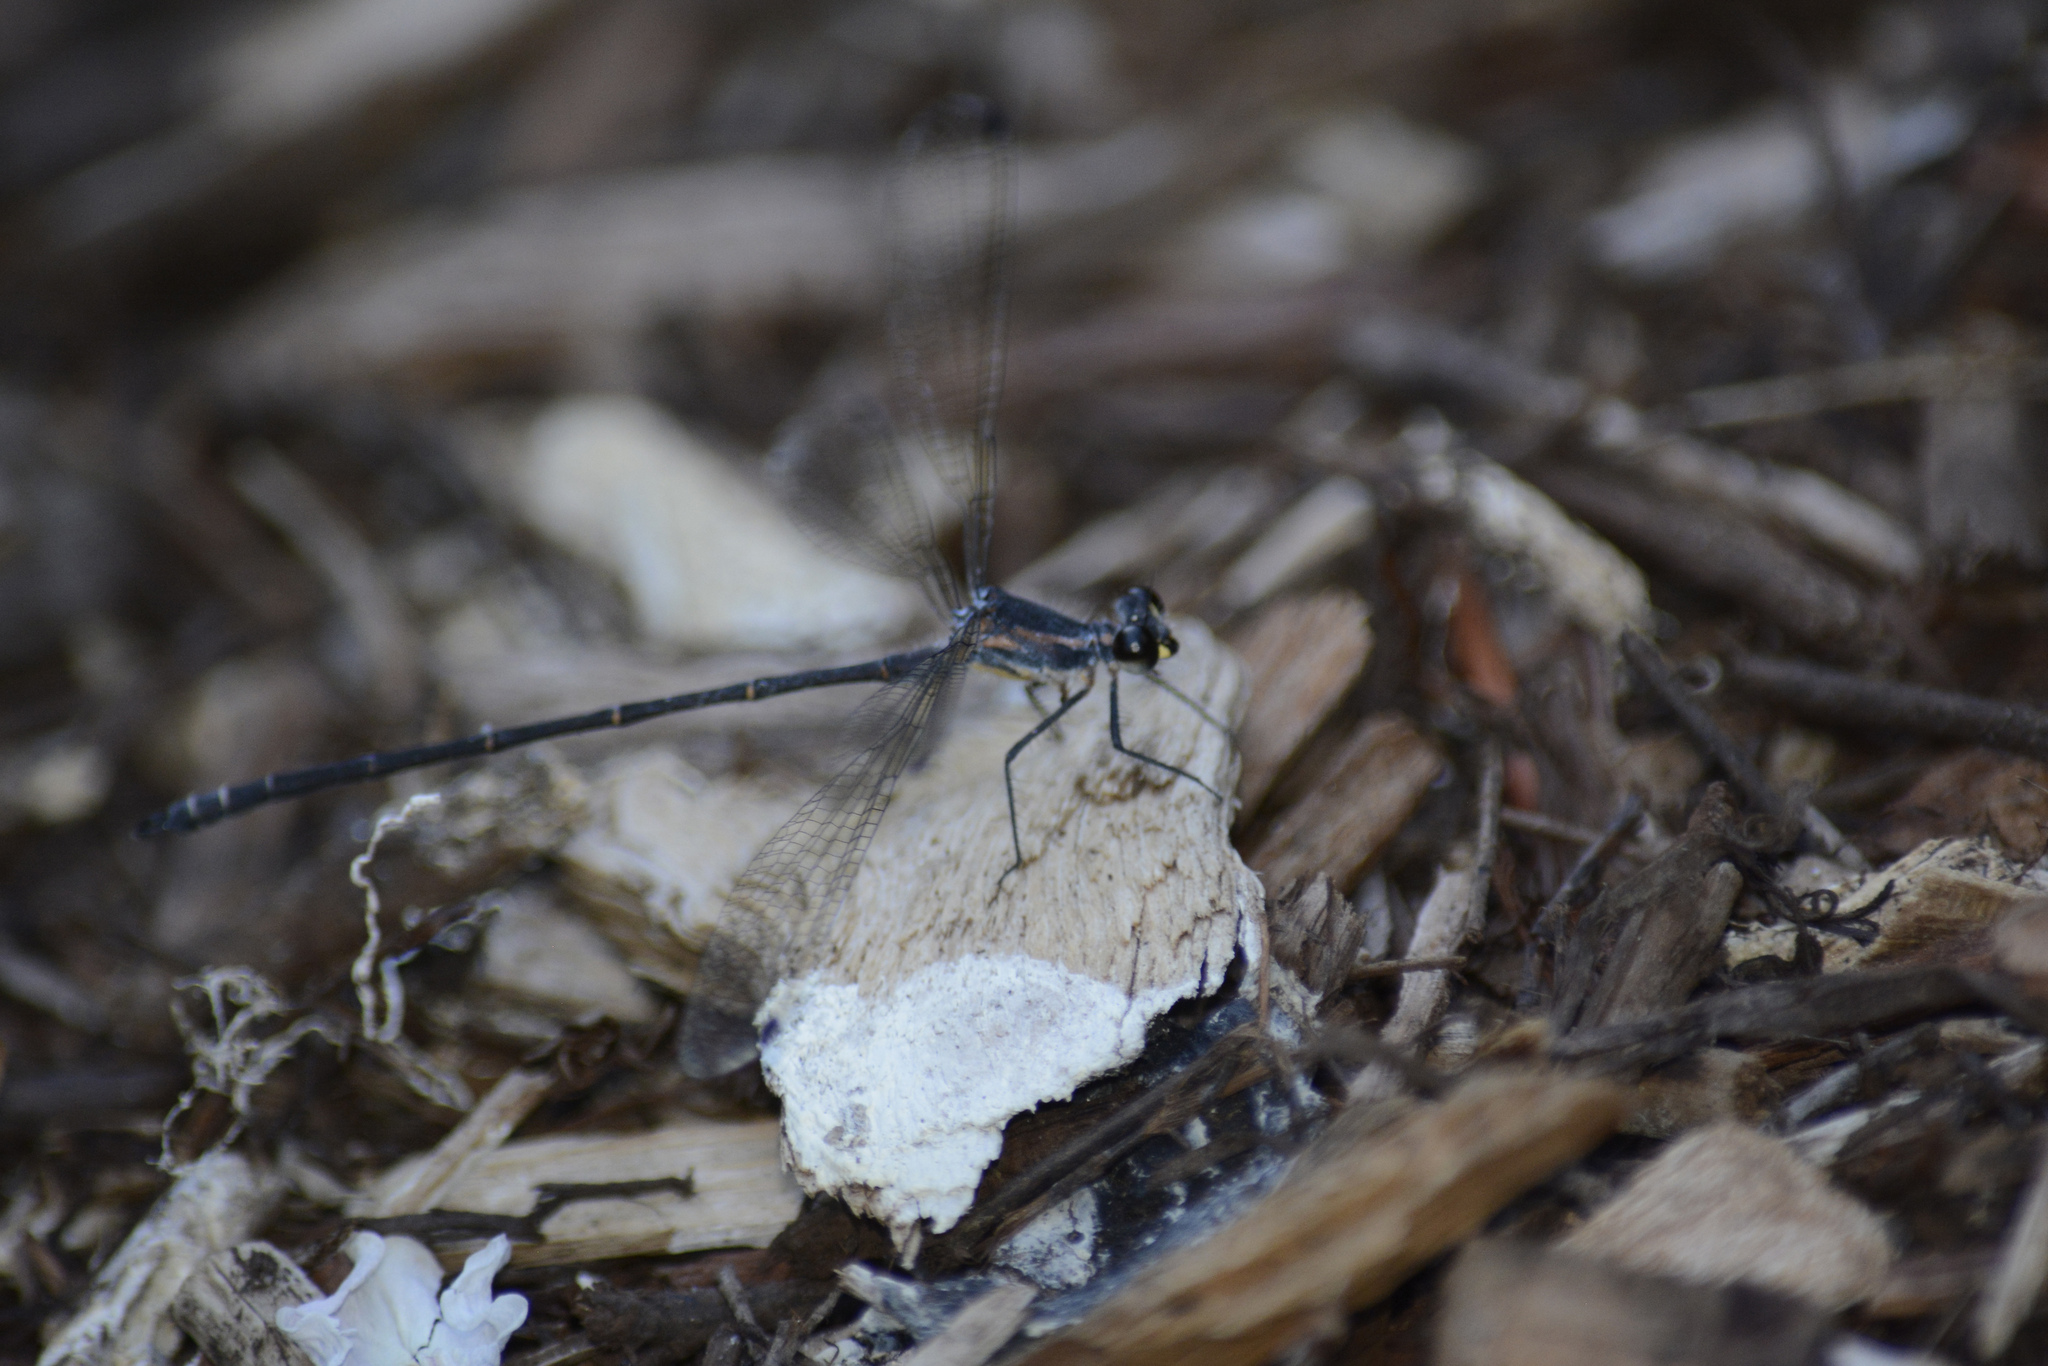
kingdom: Animalia
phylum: Arthropoda
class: Insecta
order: Odonata
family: Argiolestidae
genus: Austroargiolestes
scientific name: Austroargiolestes icteromelas
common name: Common flatwing
